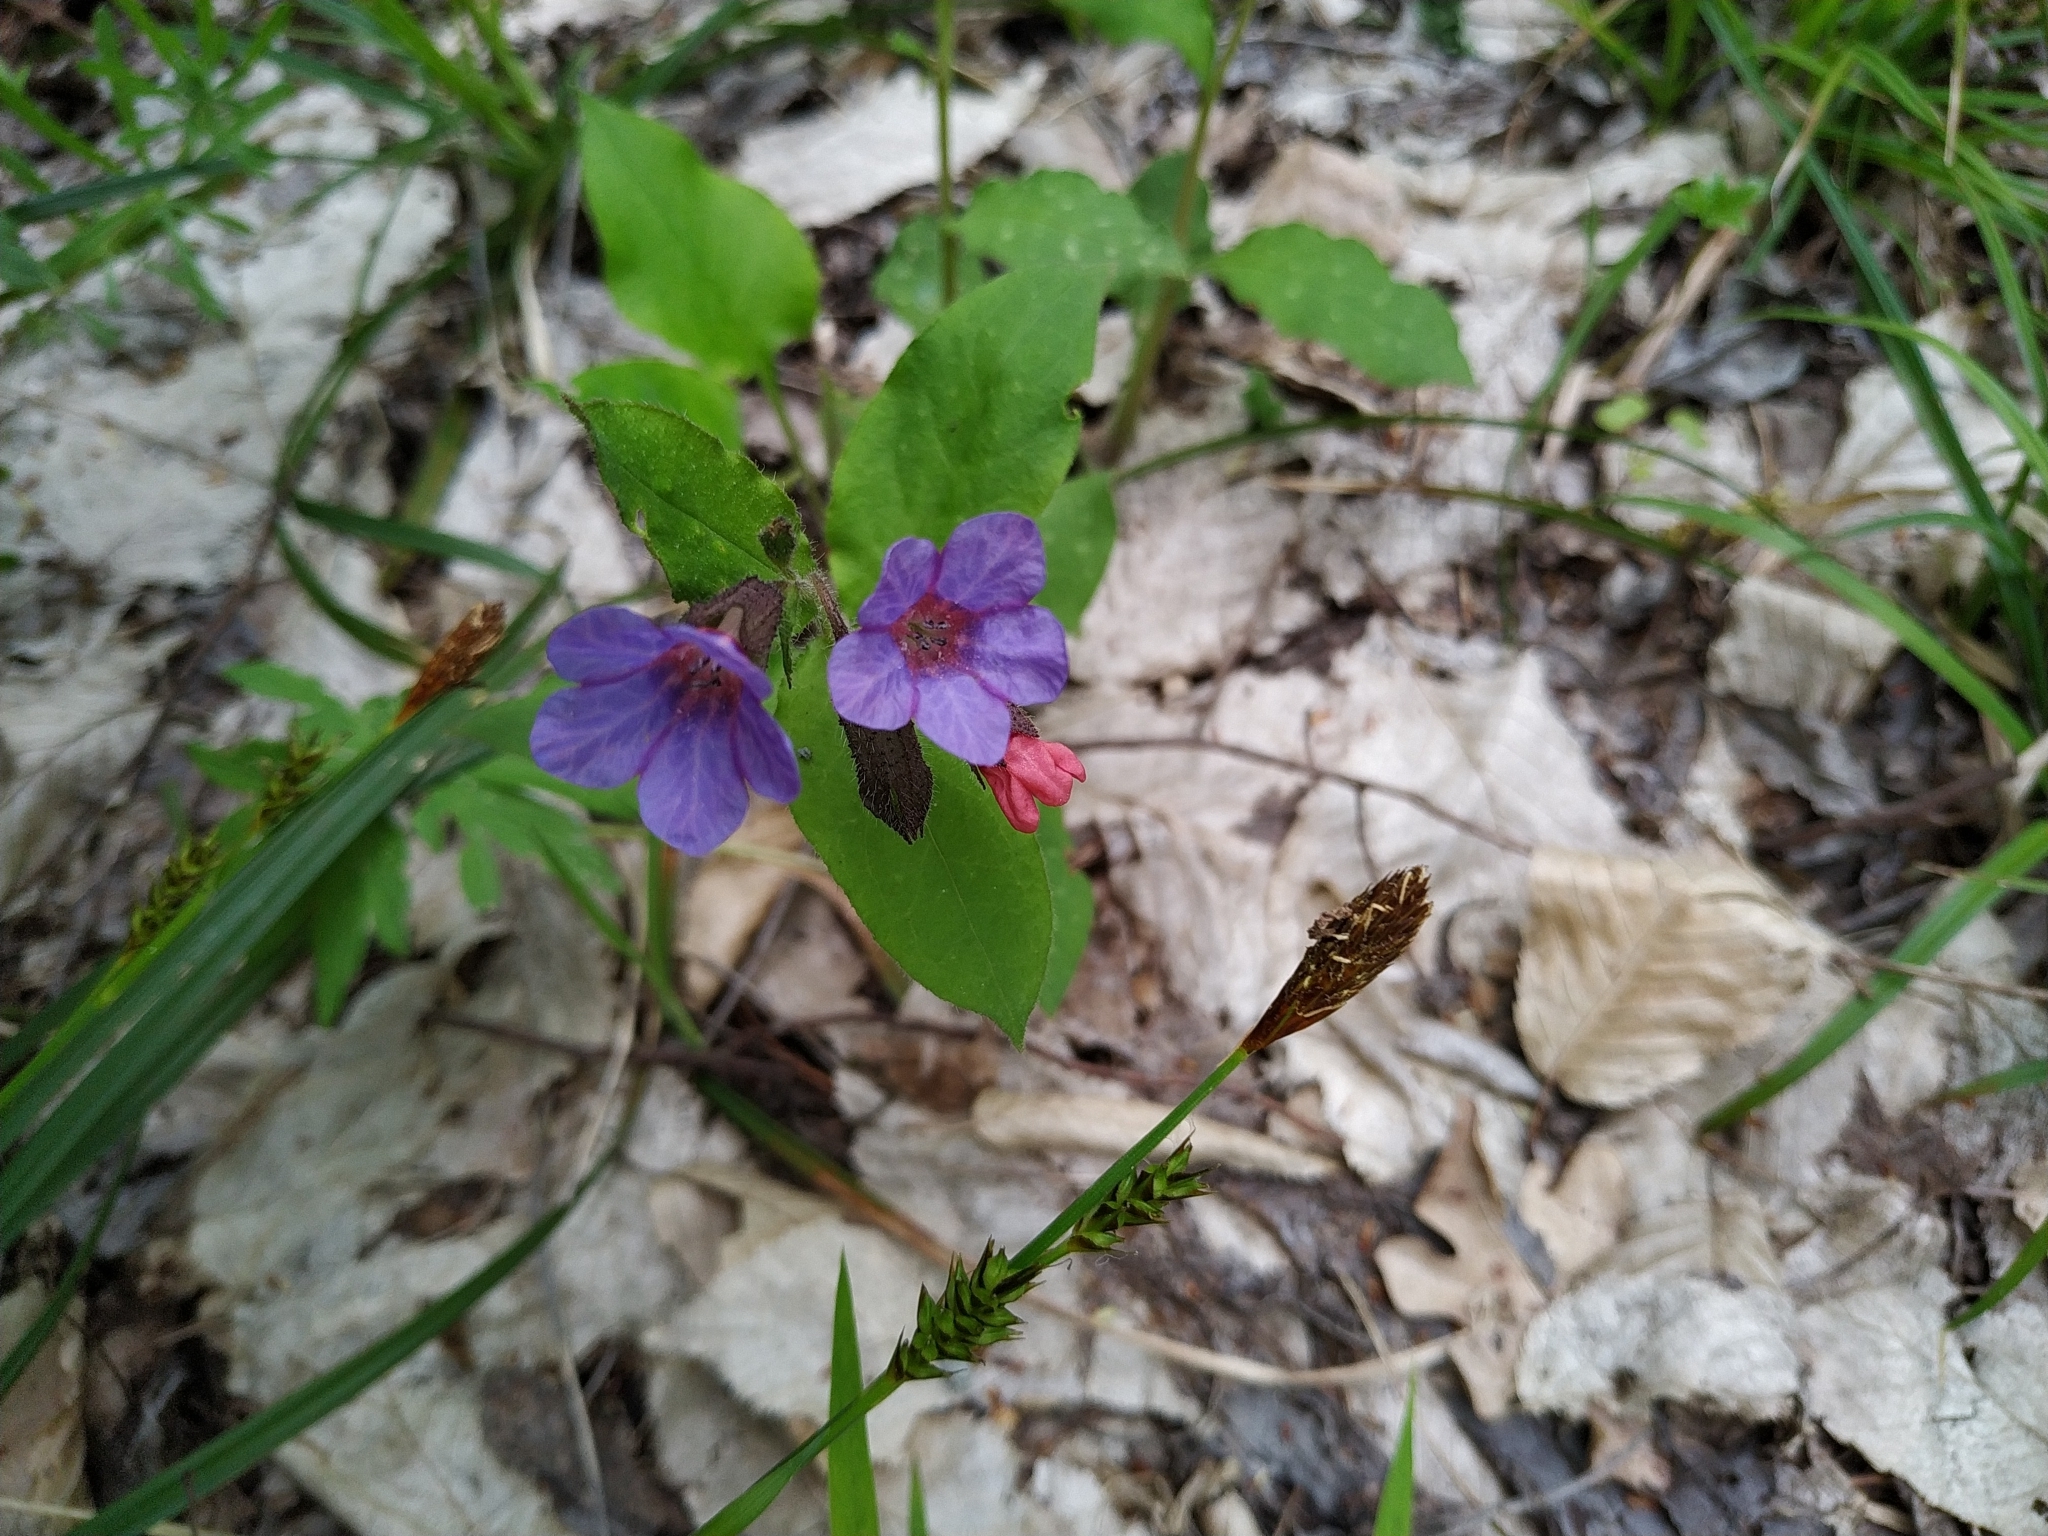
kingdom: Plantae
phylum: Tracheophyta
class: Magnoliopsida
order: Boraginales
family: Boraginaceae
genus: Pulmonaria
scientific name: Pulmonaria obscura
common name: Suffolk lungwort
